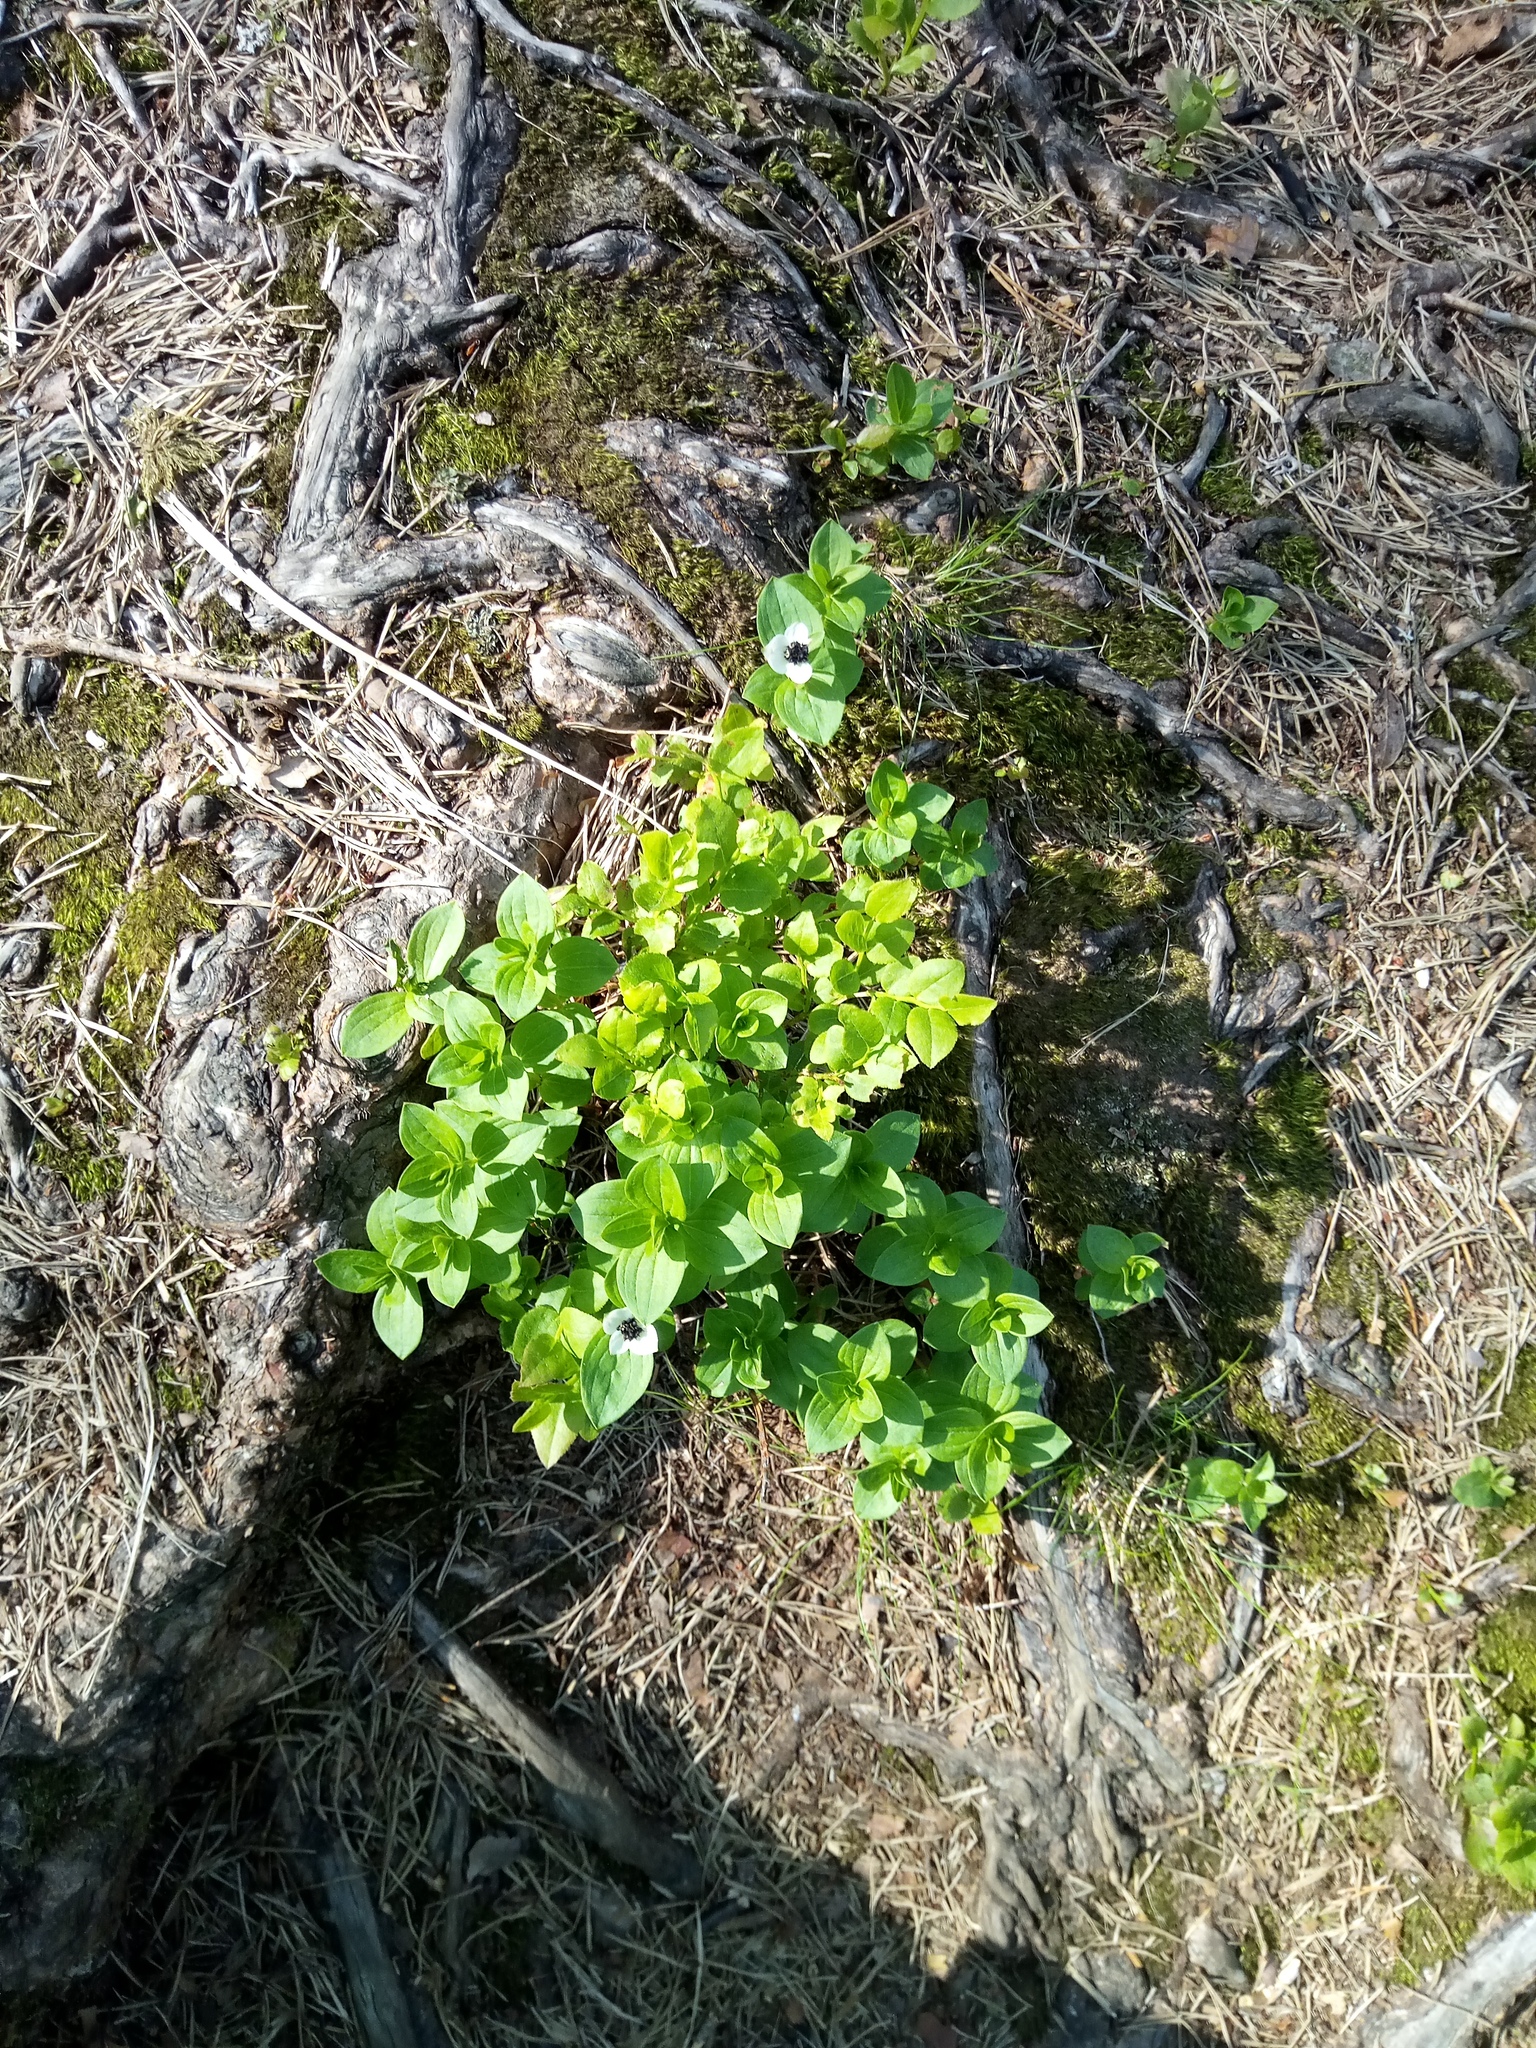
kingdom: Plantae
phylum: Tracheophyta
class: Magnoliopsida
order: Cornales
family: Cornaceae
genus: Cornus
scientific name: Cornus suecica
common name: Dwarf cornel
